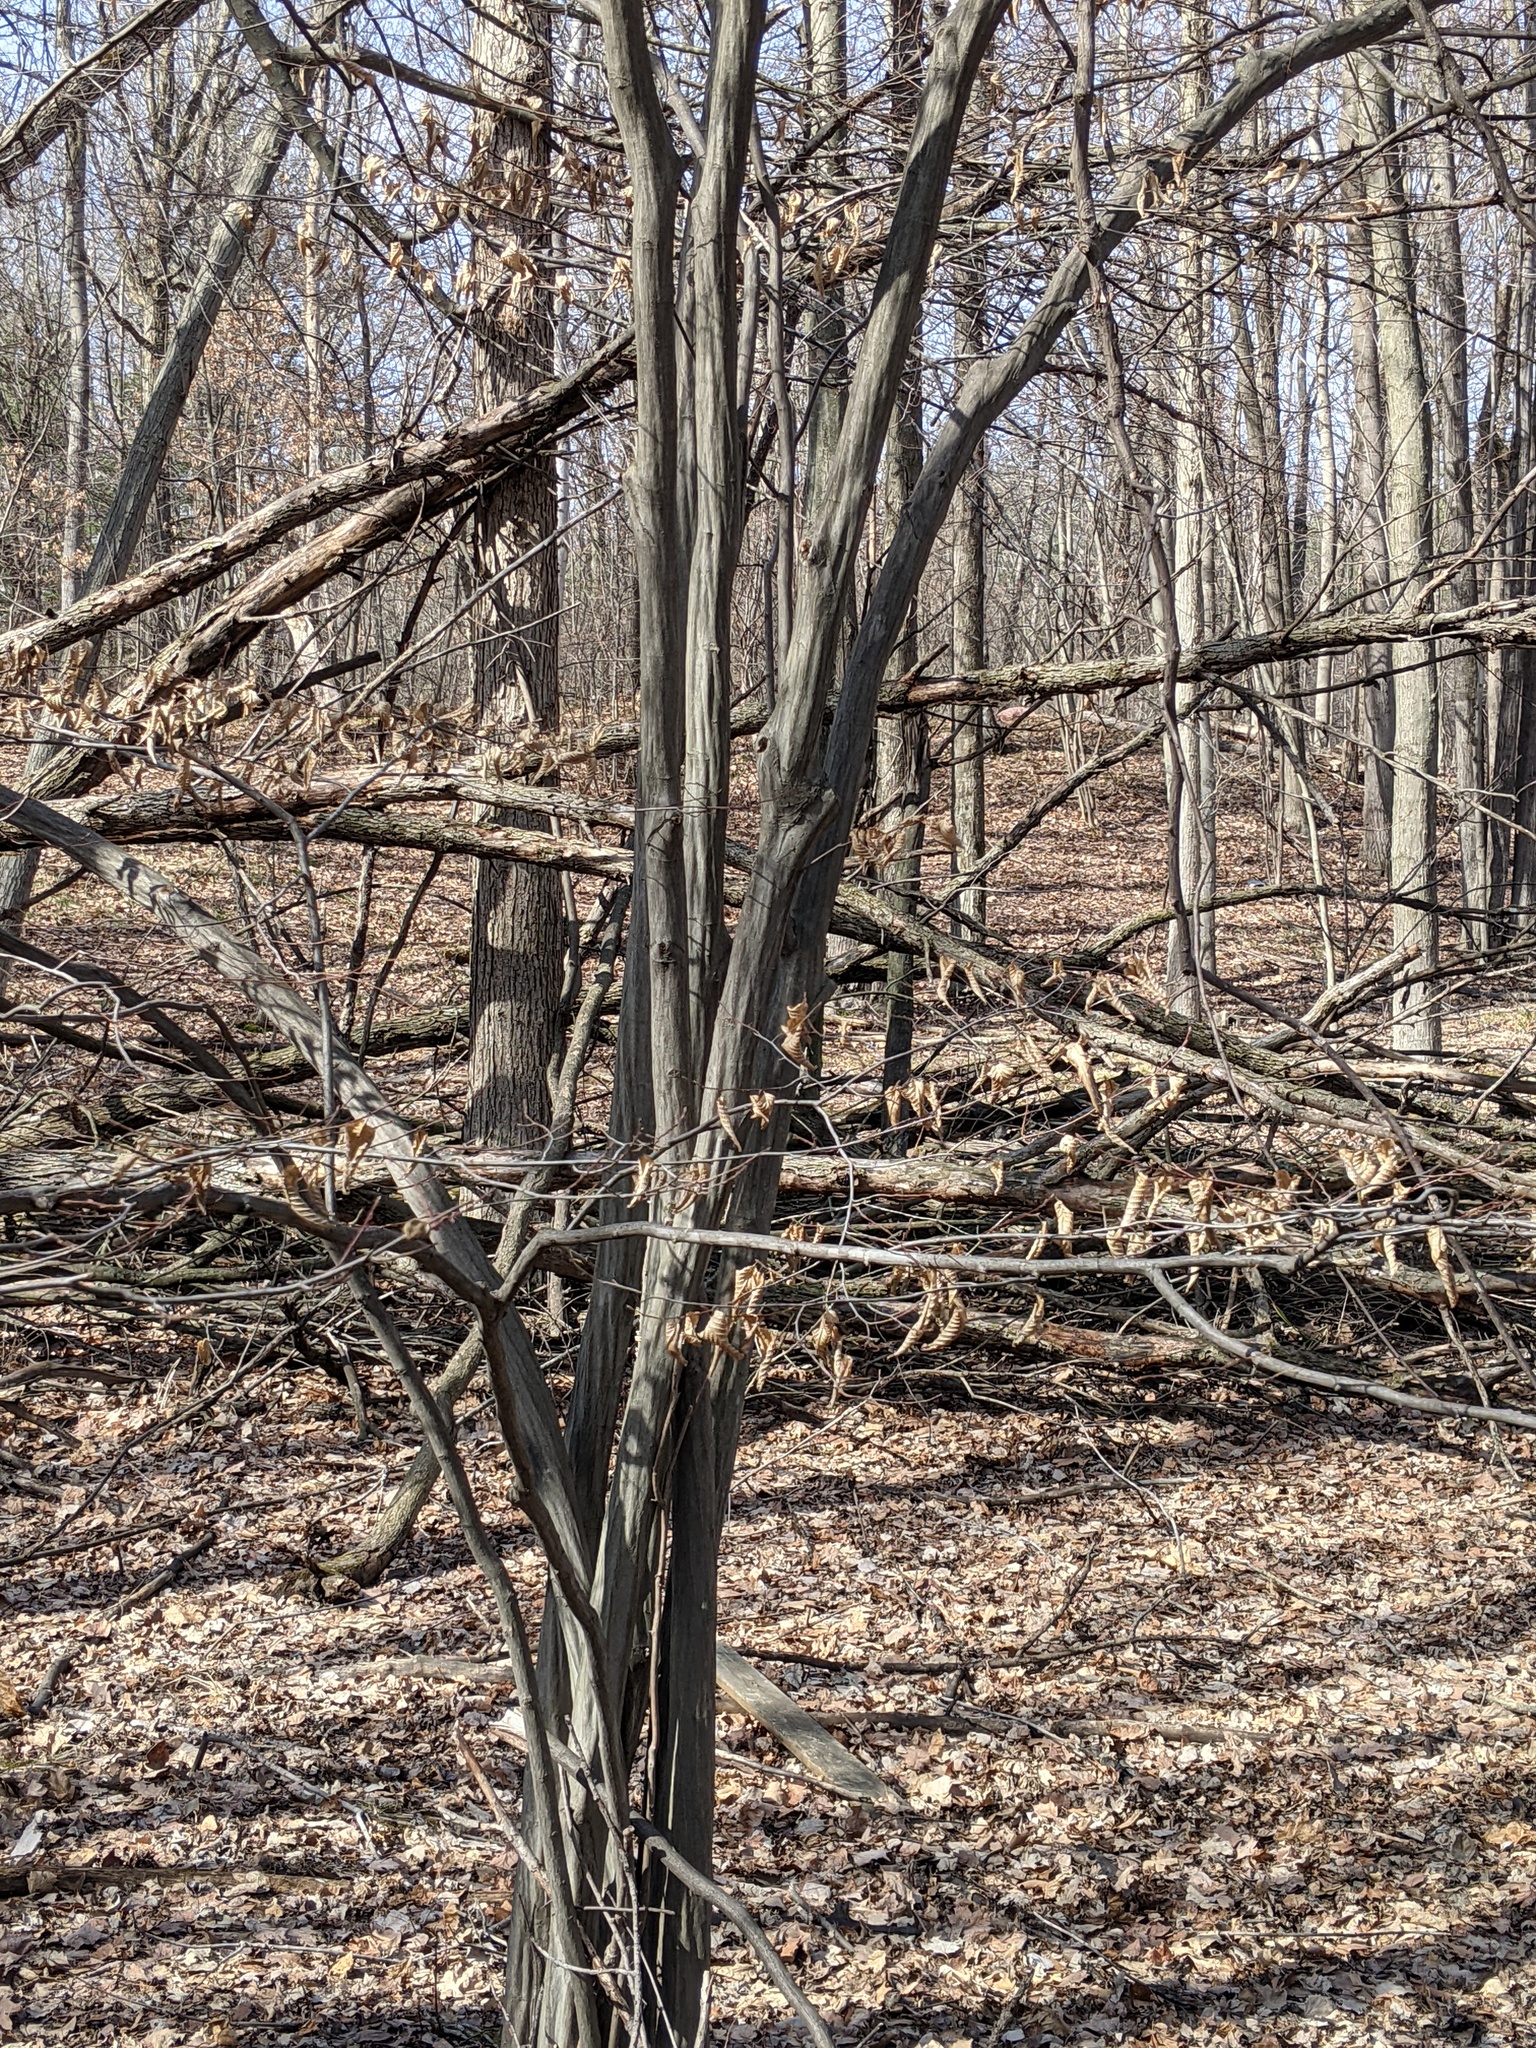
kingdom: Plantae
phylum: Tracheophyta
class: Magnoliopsida
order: Fagales
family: Betulaceae
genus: Carpinus
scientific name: Carpinus caroliniana
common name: American hornbeam
